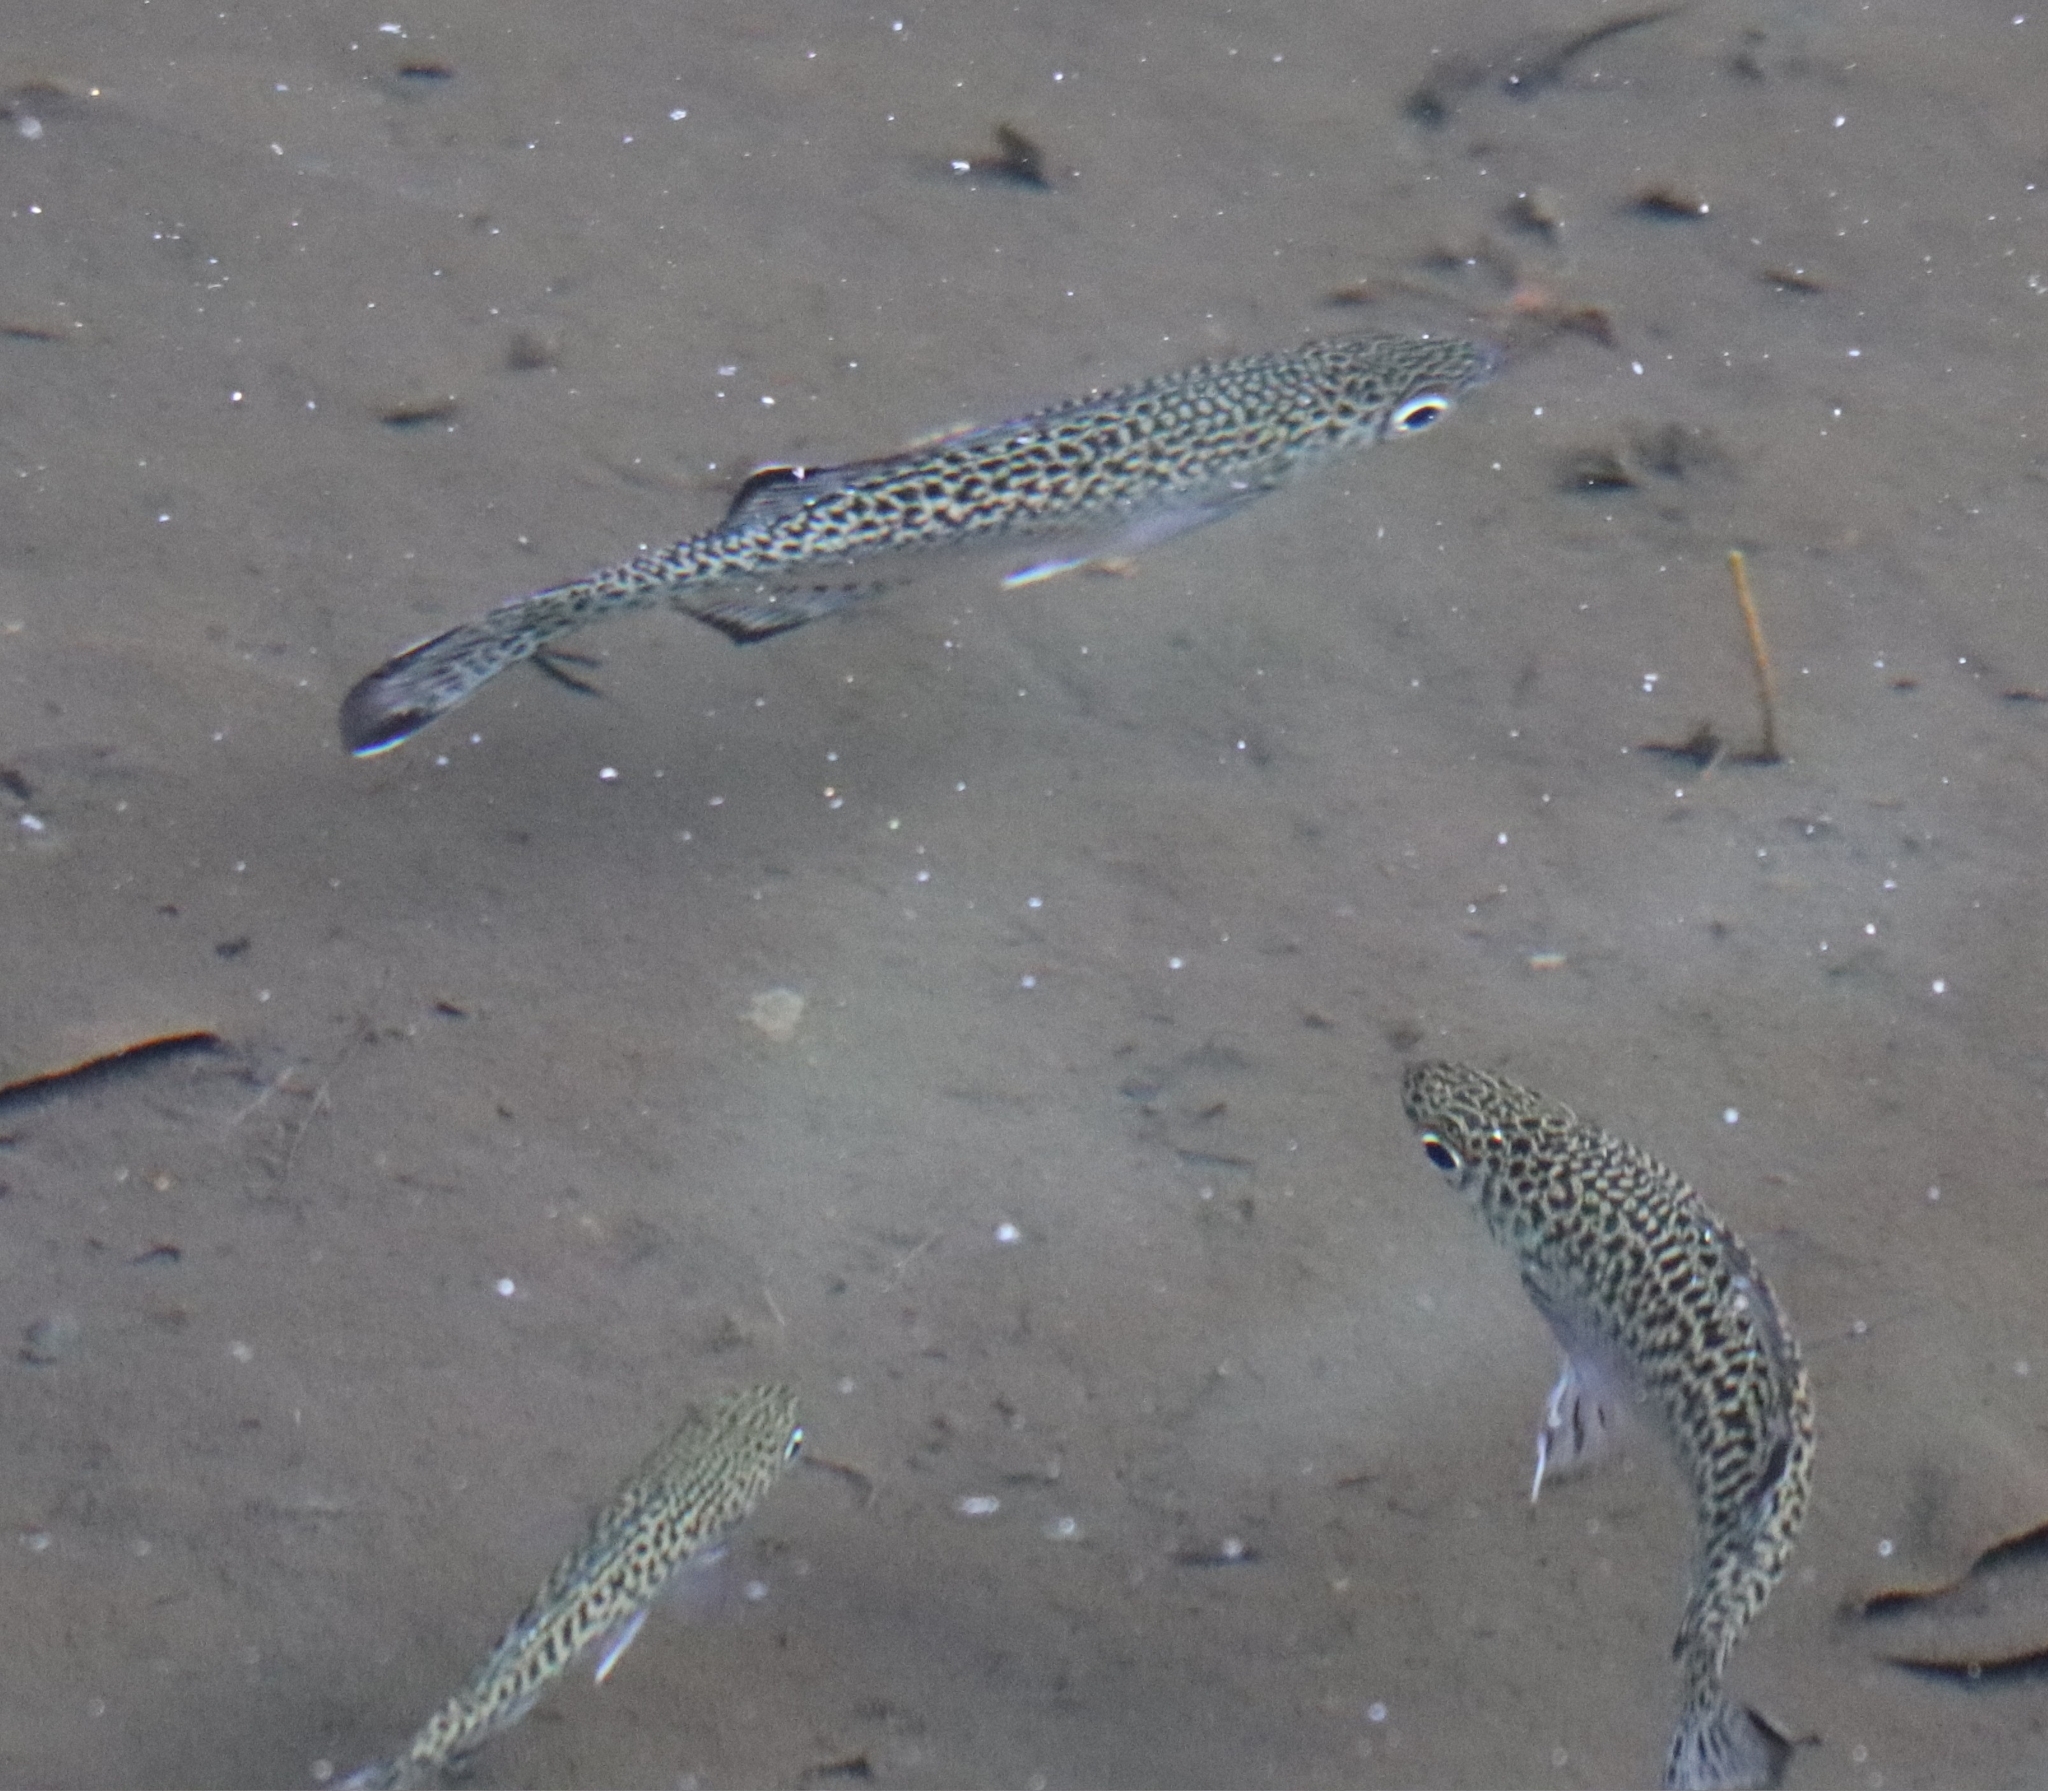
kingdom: Animalia
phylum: Chordata
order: Perciformes
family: Kuhliidae
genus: Kuhlia
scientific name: Kuhlia rupestris
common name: Rock flagtail
